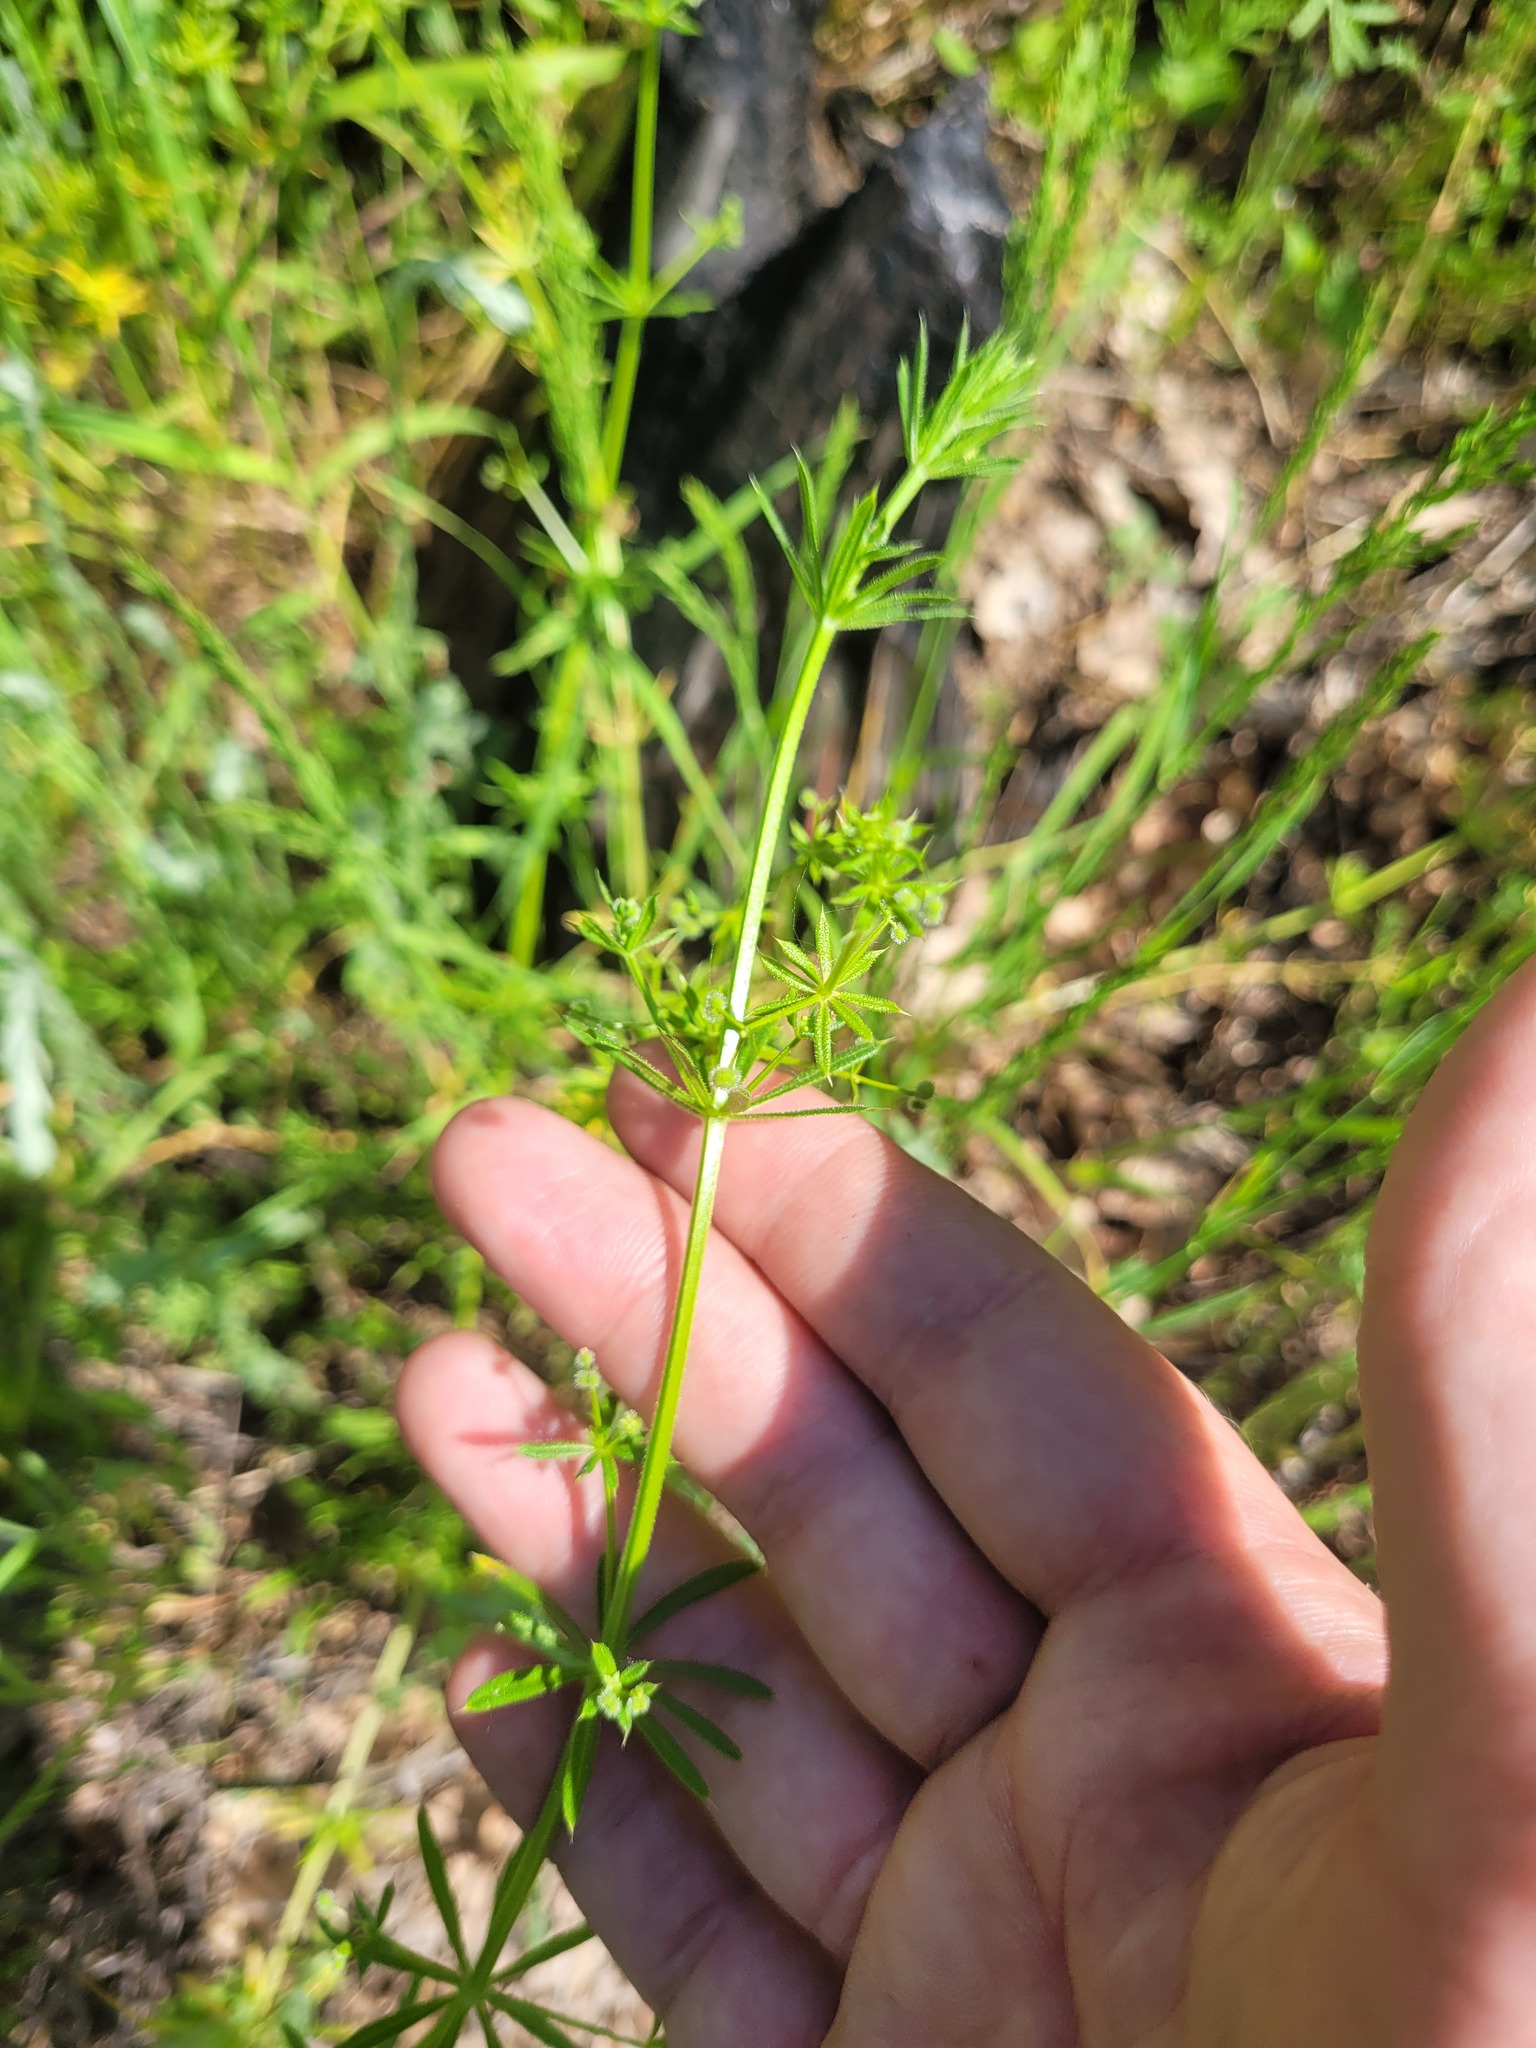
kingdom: Plantae
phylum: Tracheophyta
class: Magnoliopsida
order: Gentianales
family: Rubiaceae
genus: Galium
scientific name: Galium
